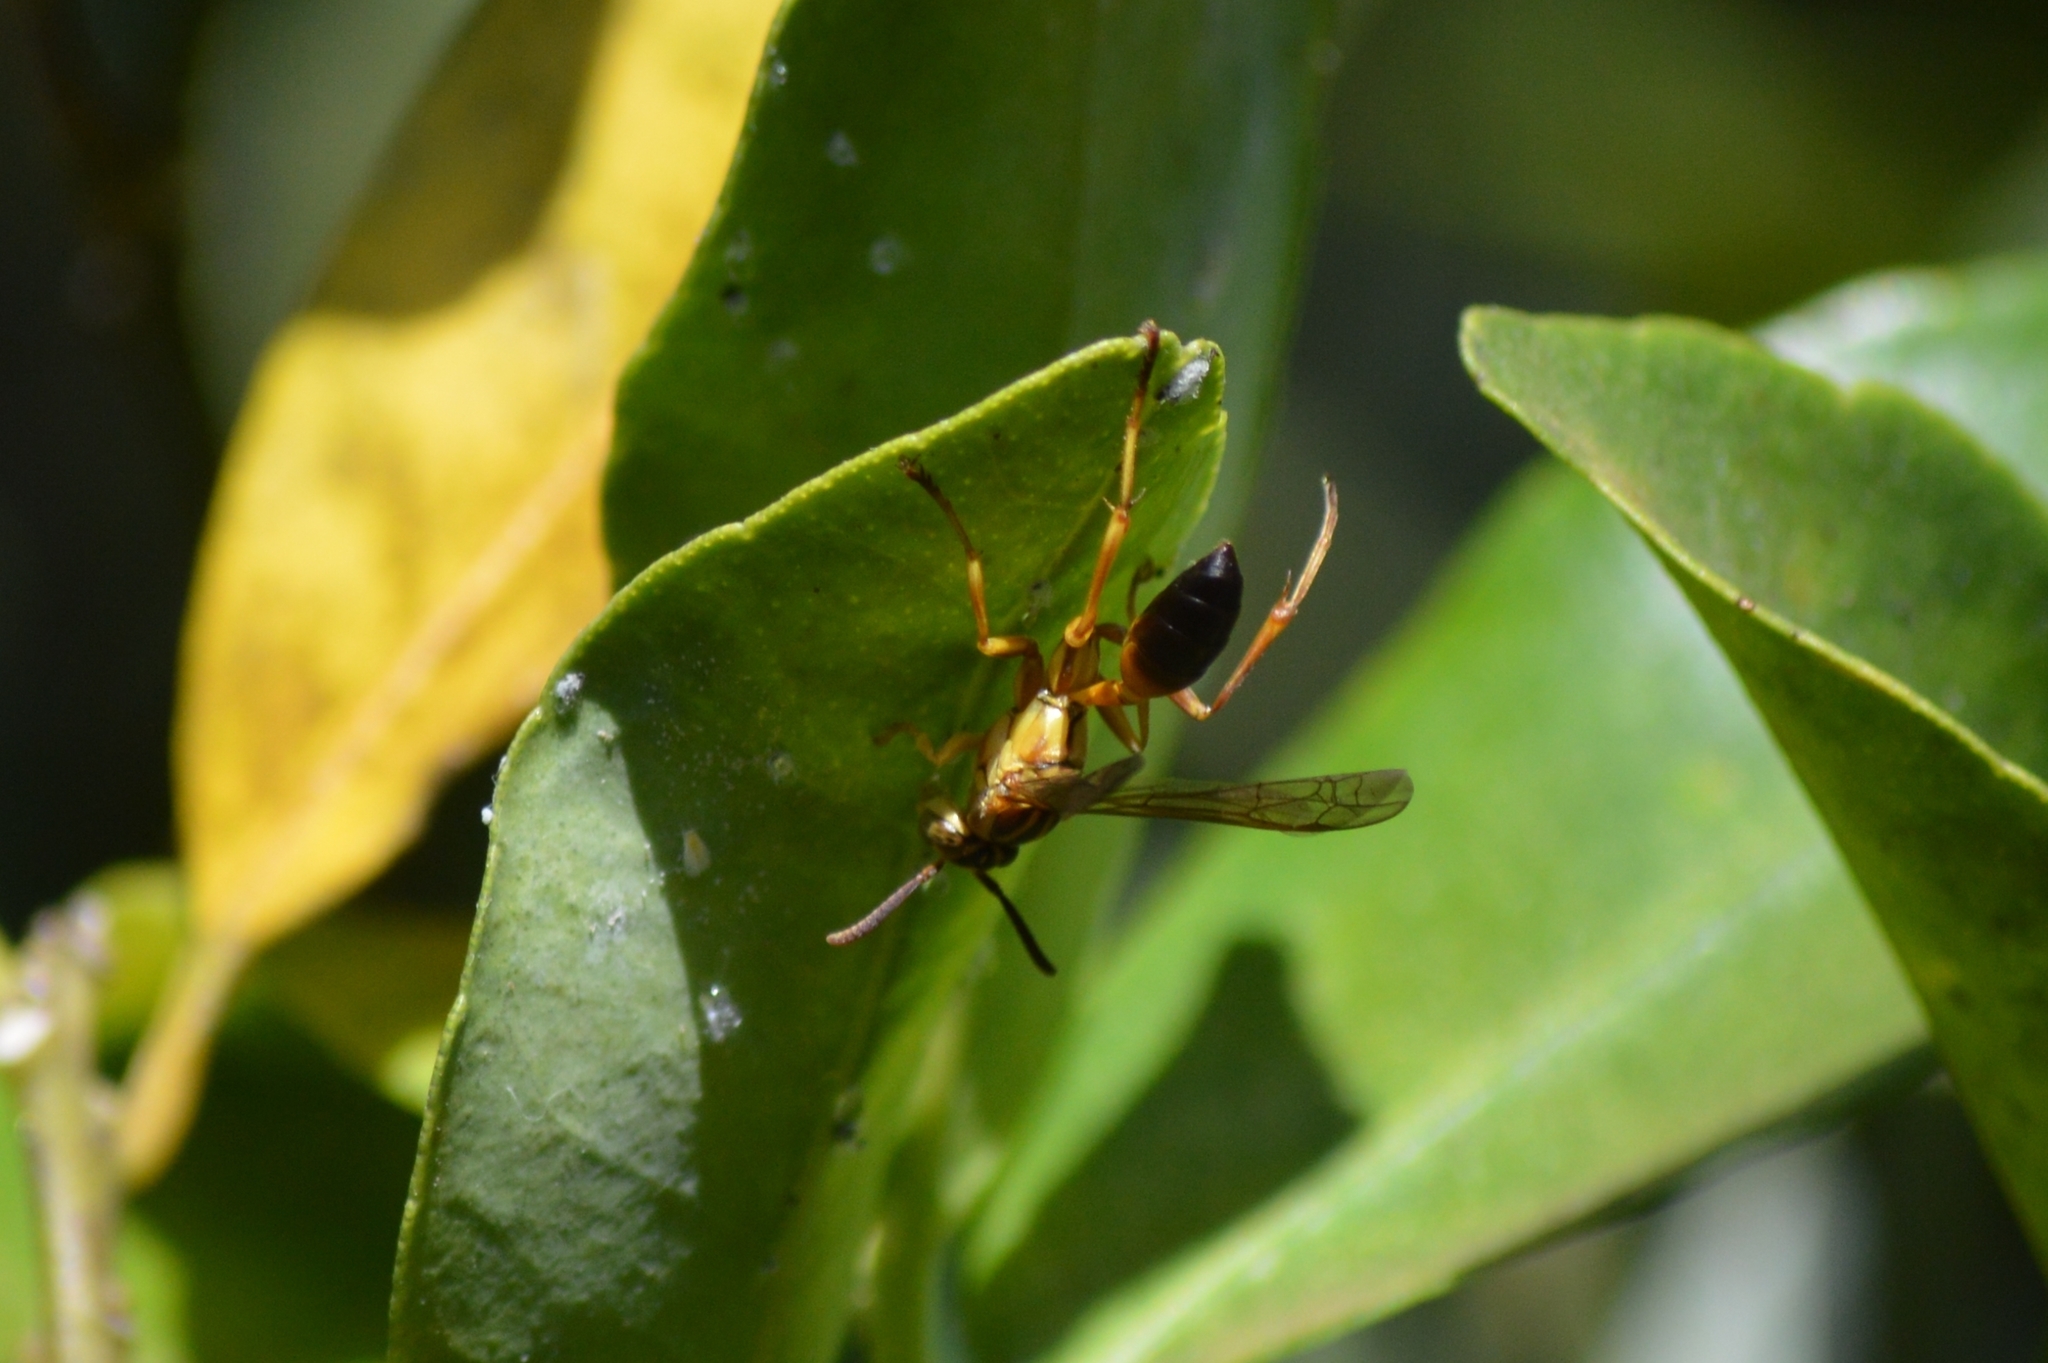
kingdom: Animalia
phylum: Arthropoda
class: Insecta
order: Hymenoptera
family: Vespidae
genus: Agelaia
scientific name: Agelaia pallipes
